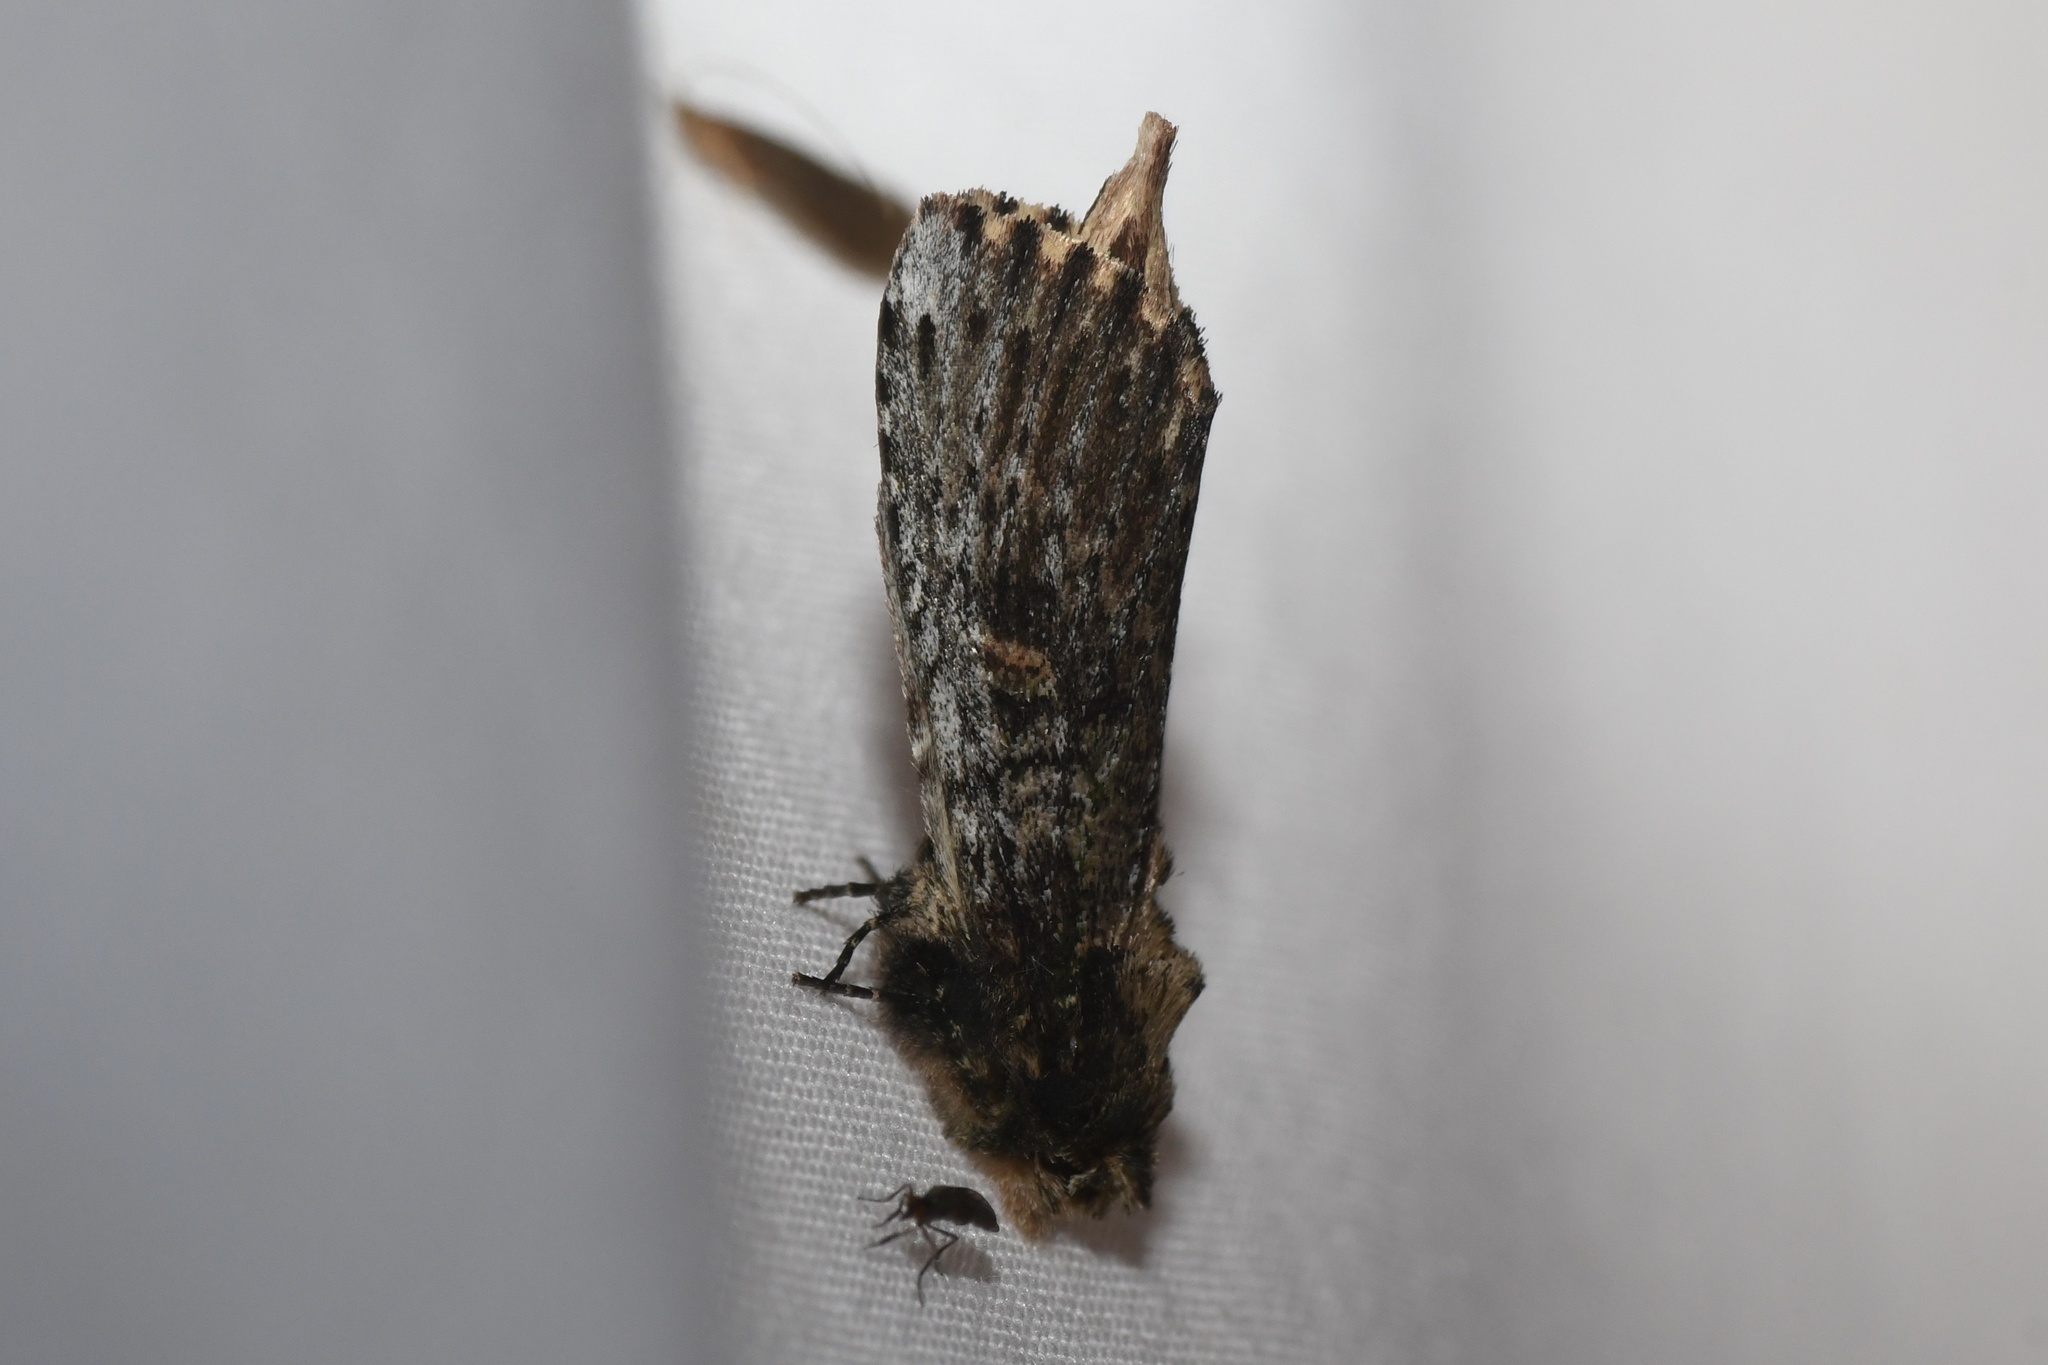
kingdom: Animalia
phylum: Arthropoda
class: Insecta
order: Lepidoptera
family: Notodontidae
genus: Schizura
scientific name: Schizura ipomaeae
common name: Morning-glory prominent
